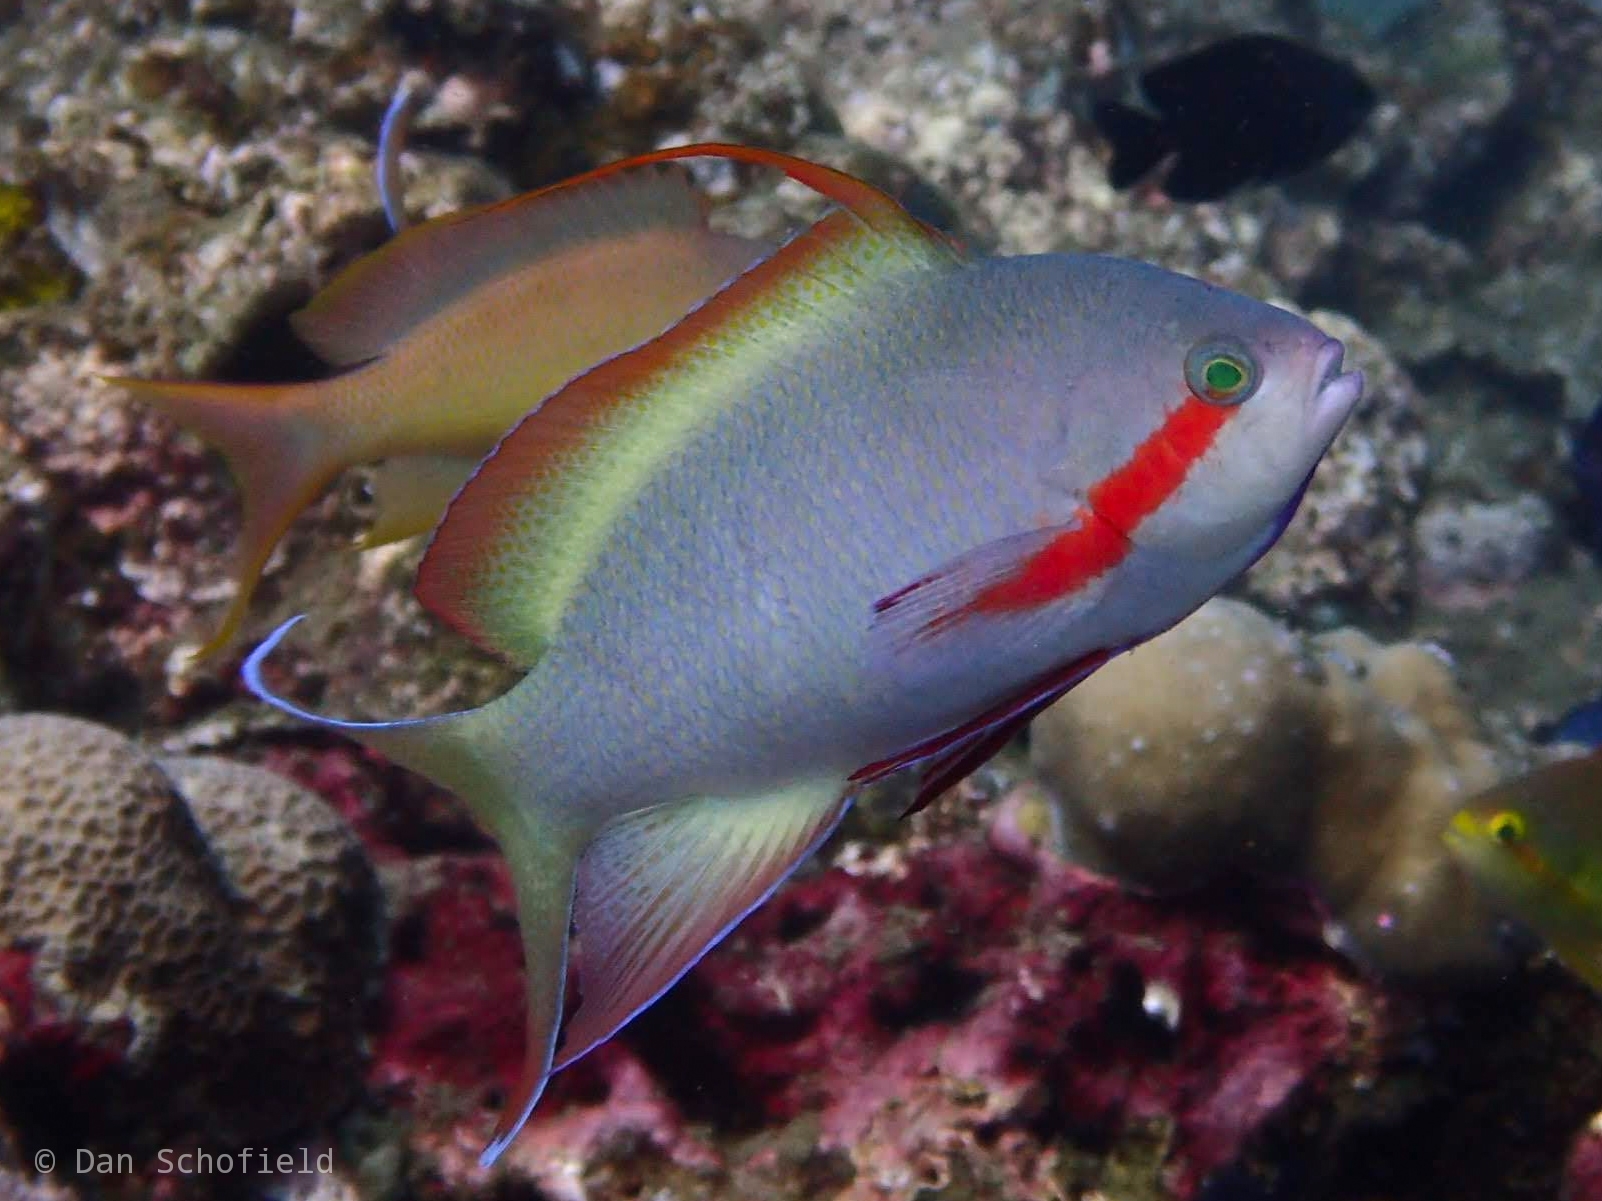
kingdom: Animalia
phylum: Chordata
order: Perciformes
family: Serranidae
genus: Pseudanthias
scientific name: Pseudanthias huchtii
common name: Pacific basslet
